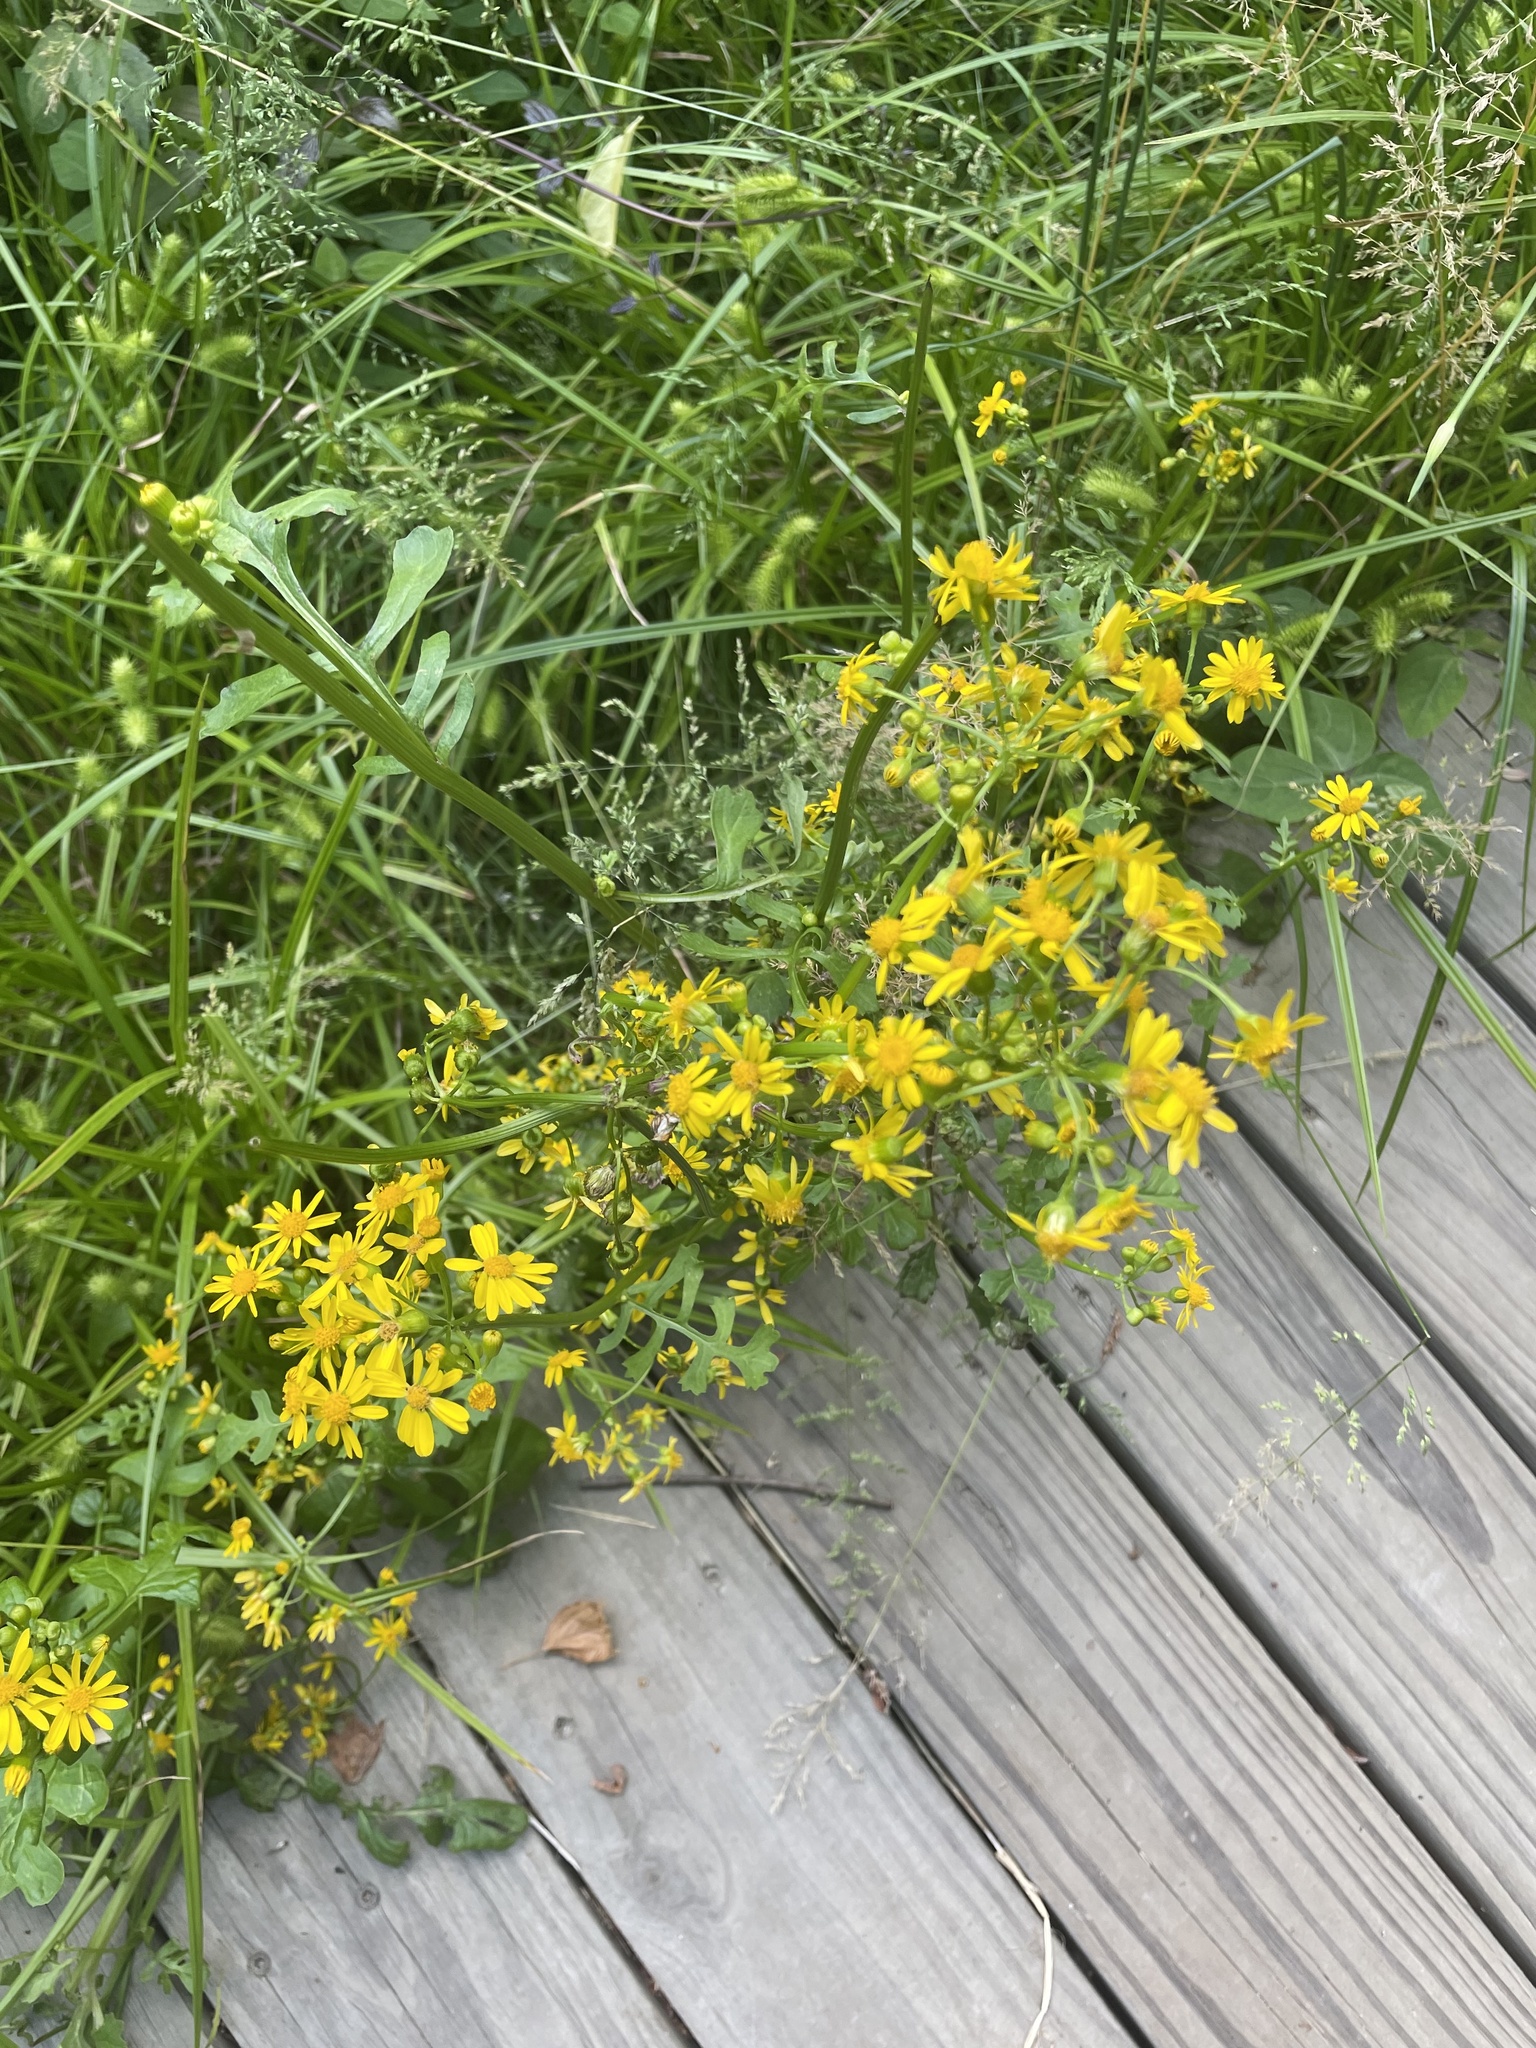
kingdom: Plantae
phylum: Tracheophyta
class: Magnoliopsida
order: Asterales
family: Asteraceae
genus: Packera
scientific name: Packera glabella
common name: Butterweed
